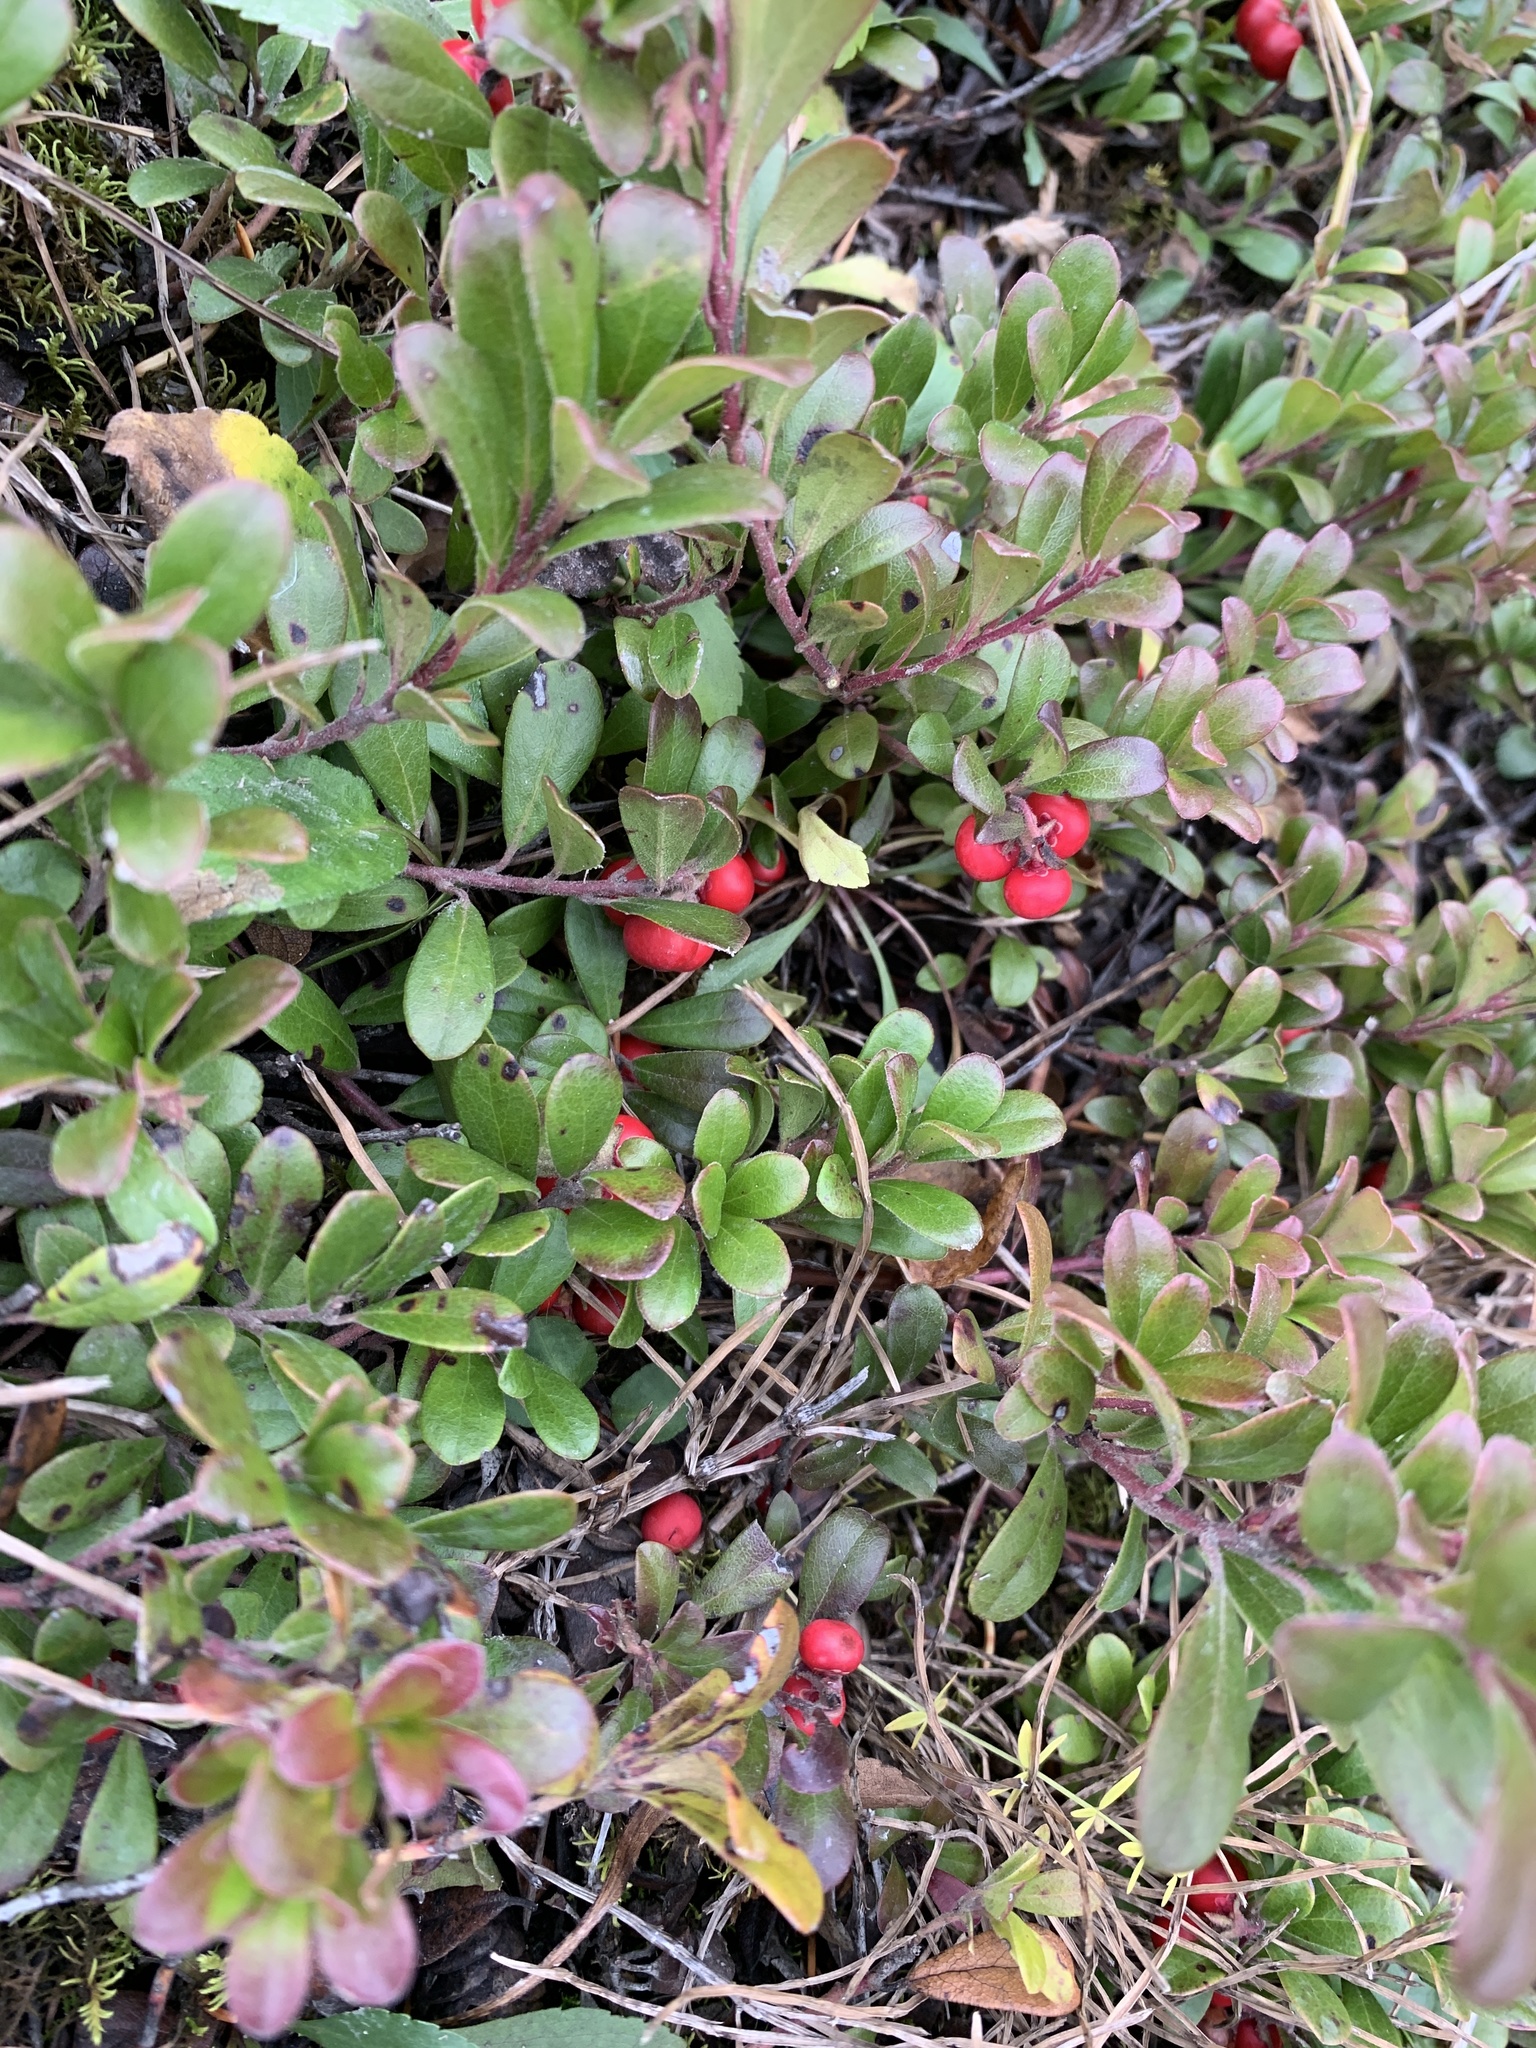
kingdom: Plantae
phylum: Tracheophyta
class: Magnoliopsida
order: Ericales
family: Ericaceae
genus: Arctostaphylos
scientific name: Arctostaphylos uva-ursi
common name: Bearberry
